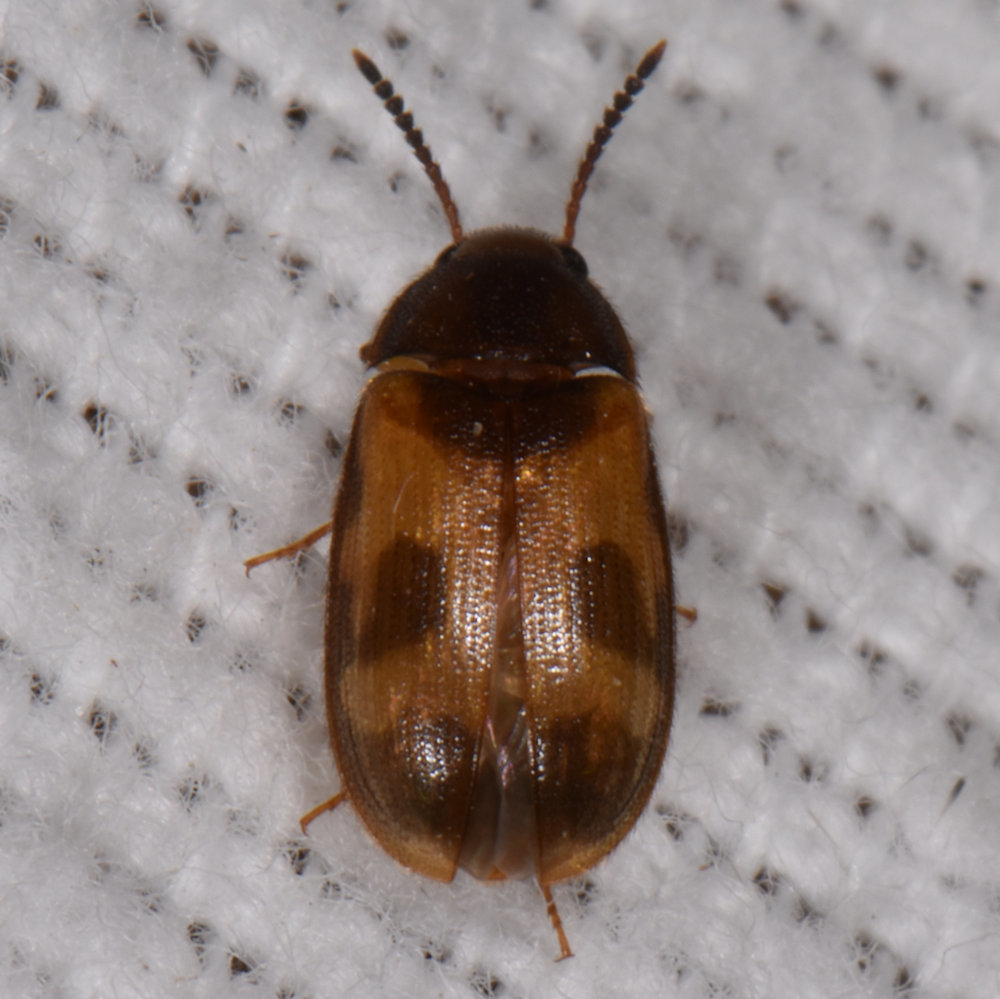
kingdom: Animalia
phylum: Arthropoda
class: Insecta
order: Coleoptera
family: Mycetophagidae
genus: Mycetophagus
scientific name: Mycetophagus punctatus
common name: Hairy fungus beetle
